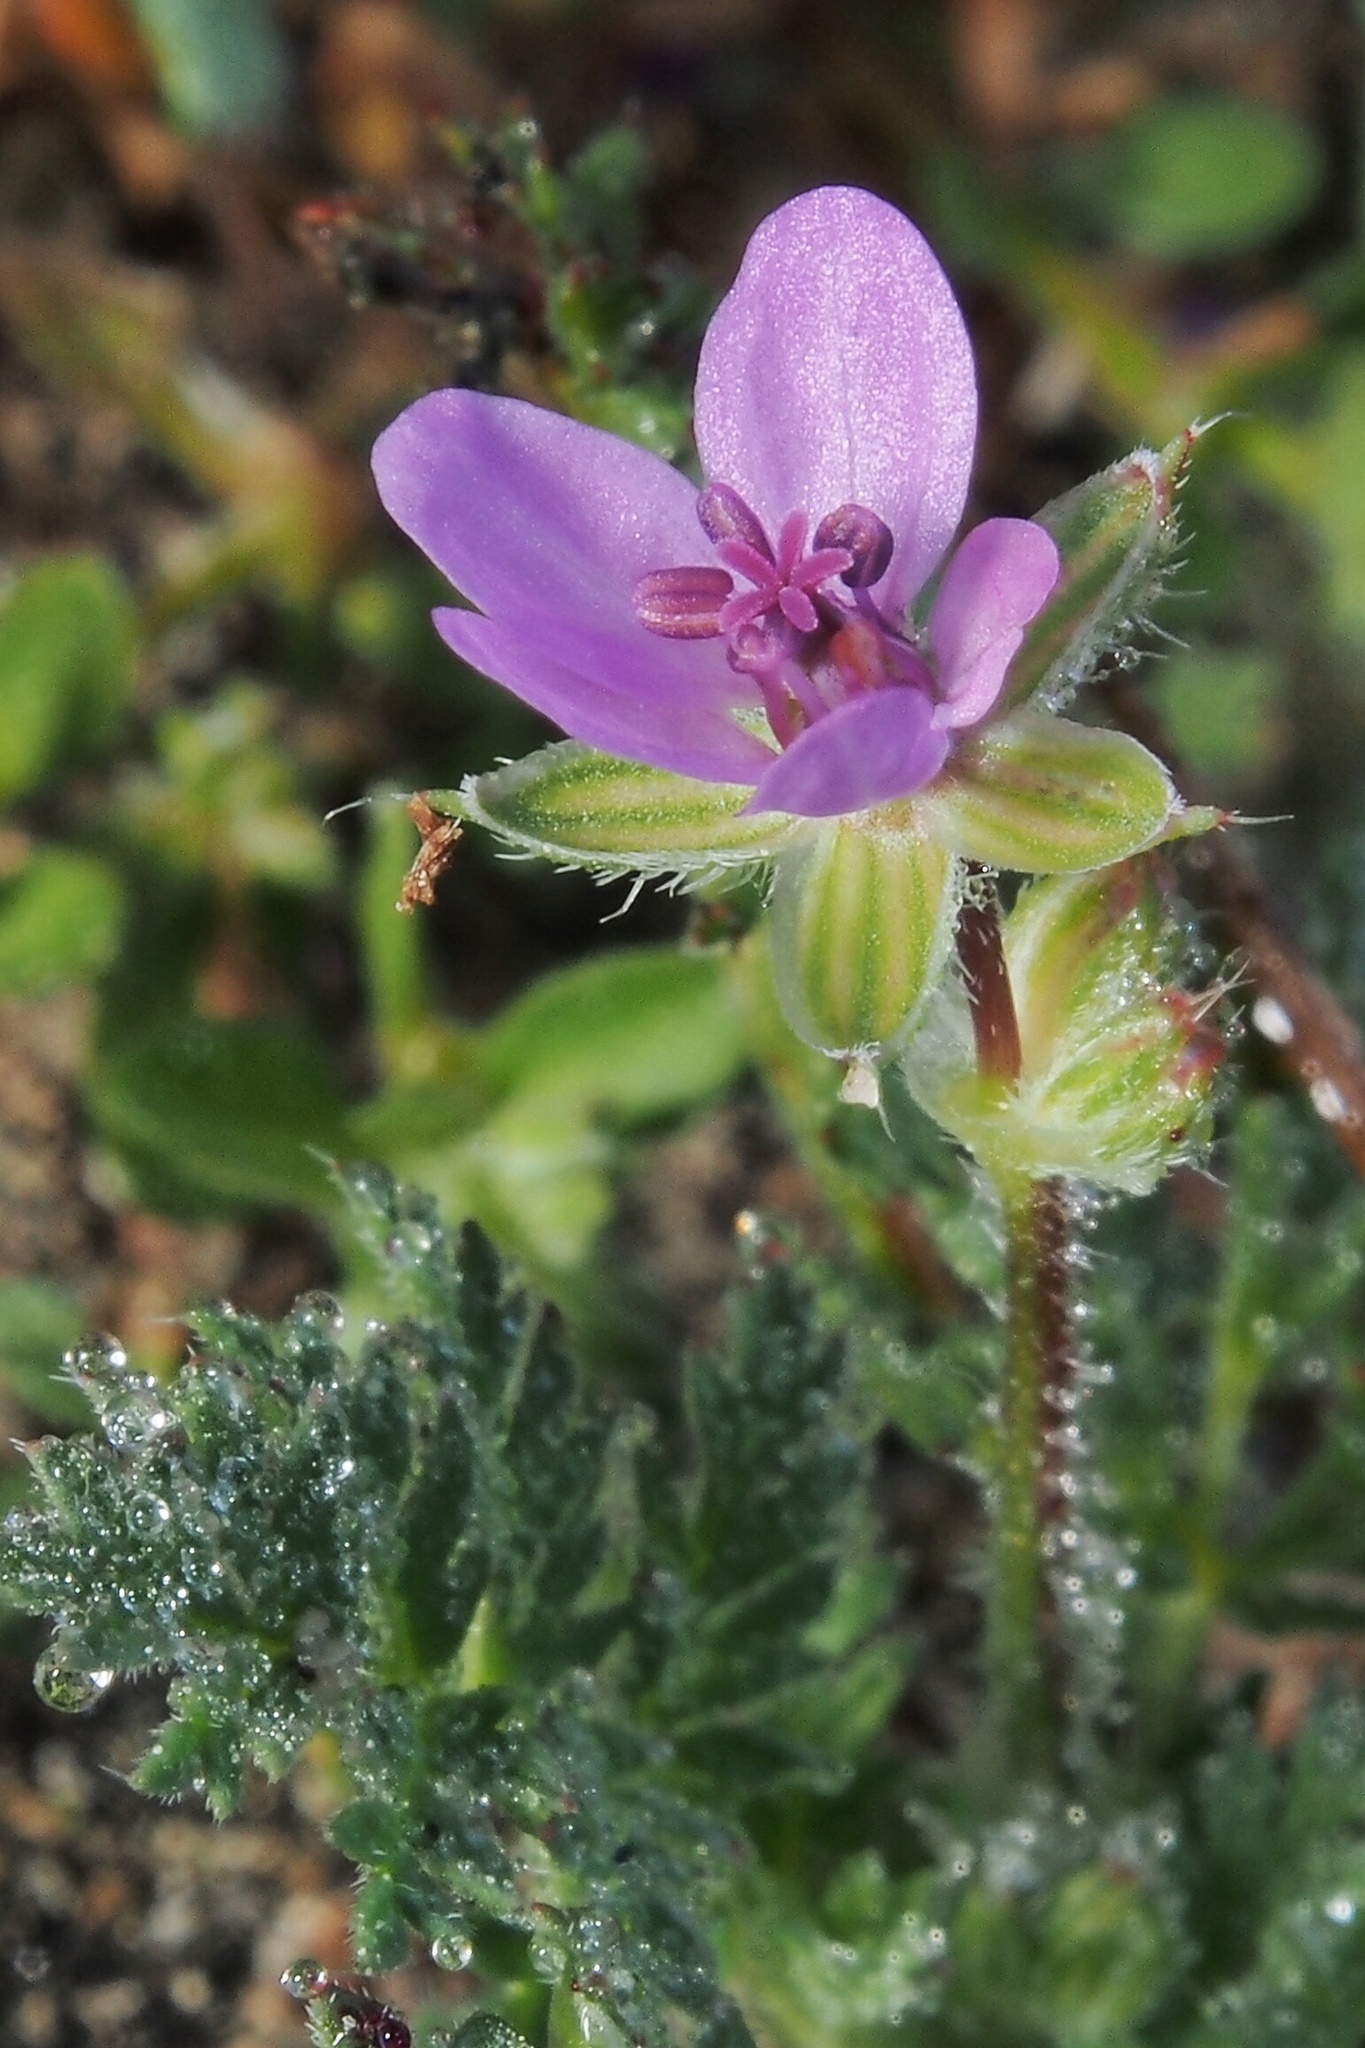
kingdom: Plantae
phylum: Tracheophyta
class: Magnoliopsida
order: Geraniales
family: Geraniaceae
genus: Erodium
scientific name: Erodium cicutarium
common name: Common stork's-bill
